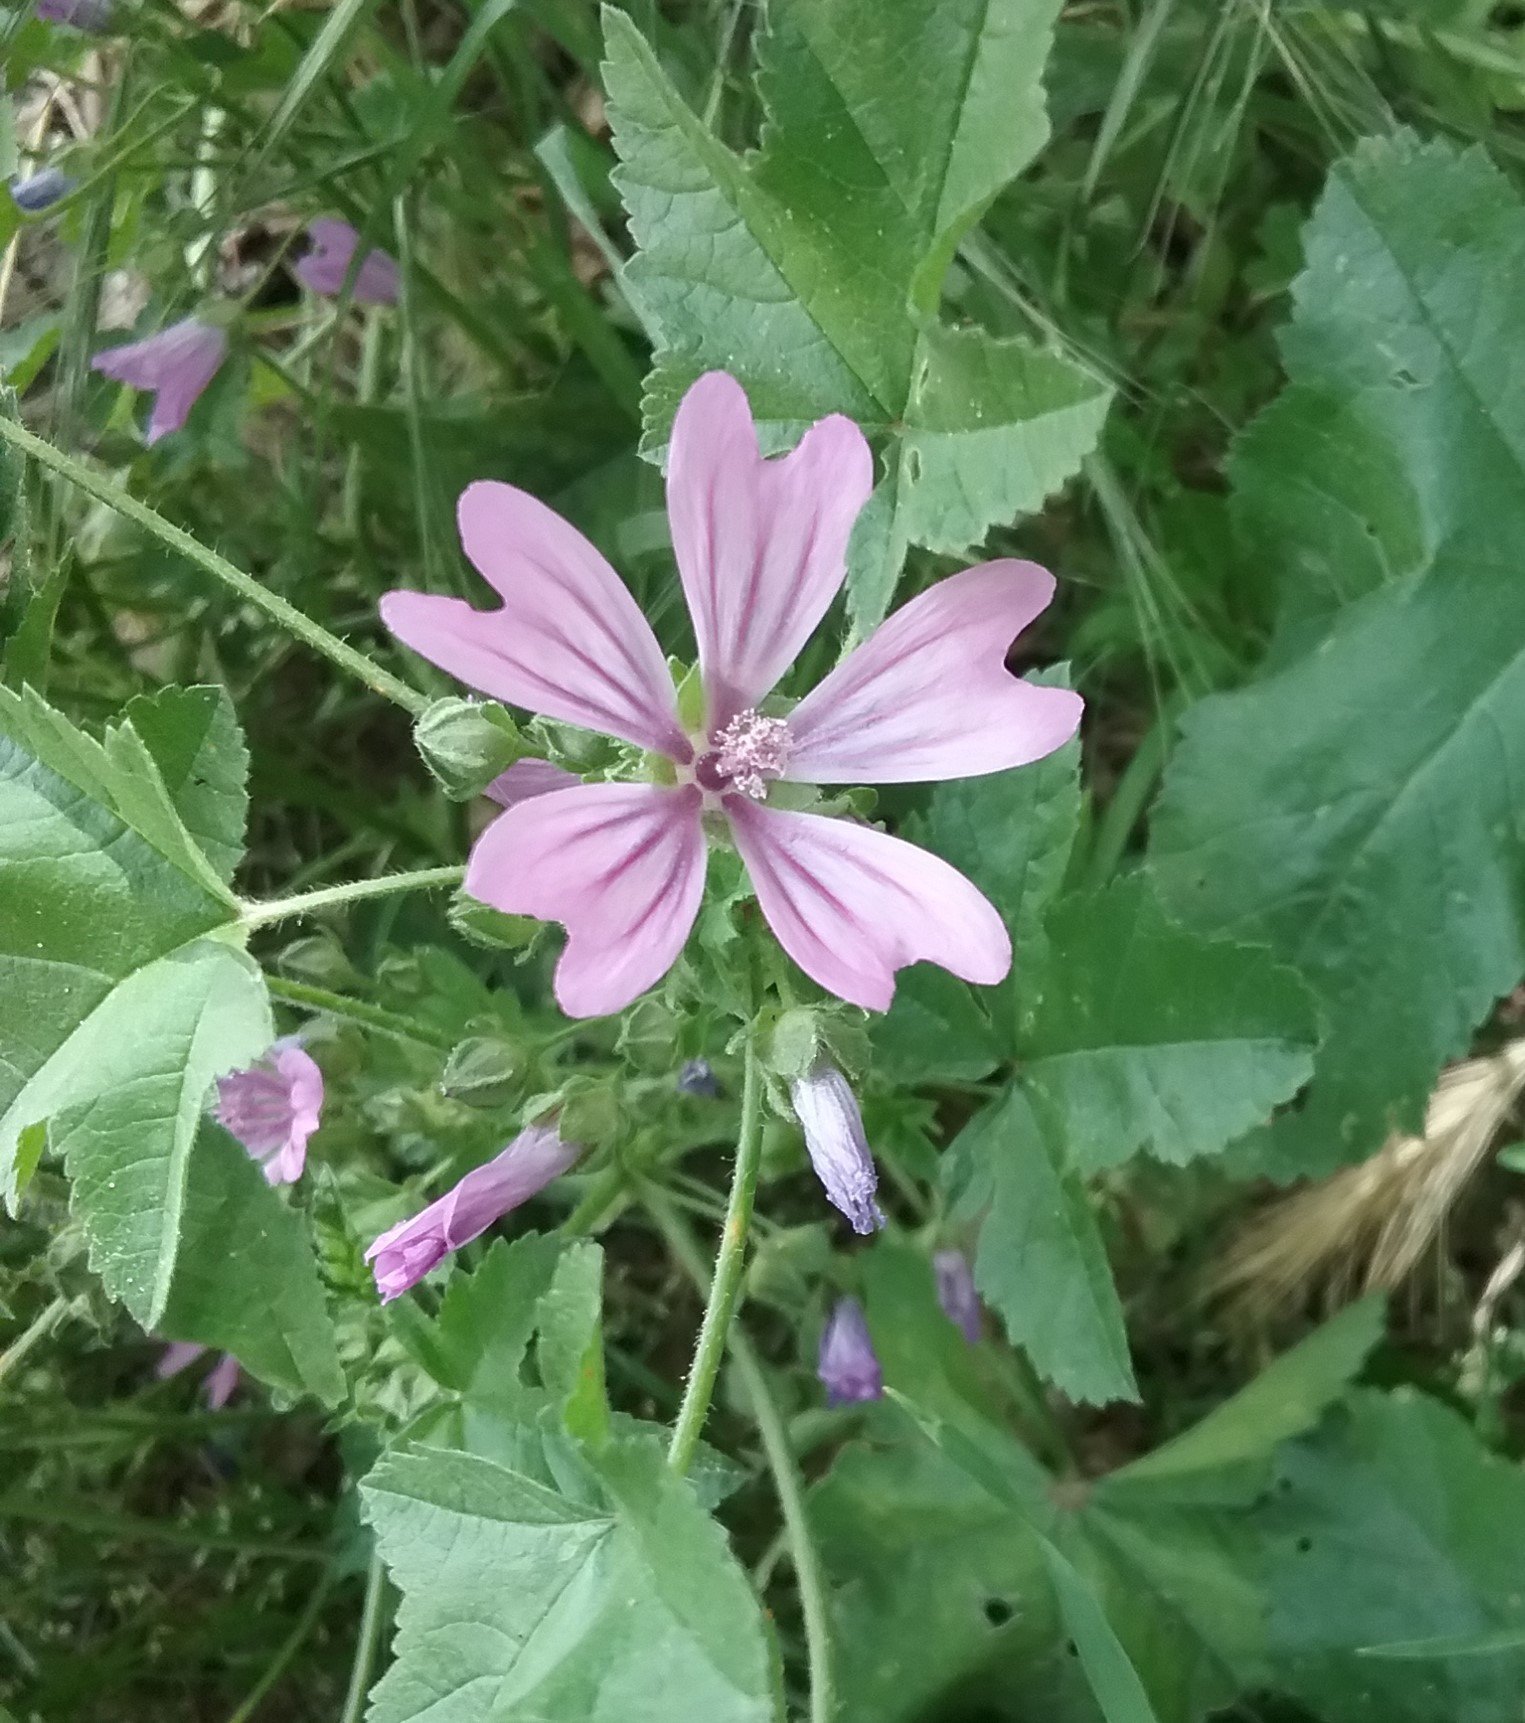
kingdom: Plantae
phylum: Tracheophyta
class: Magnoliopsida
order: Malvales
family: Malvaceae
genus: Malva
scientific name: Malva sylvestris
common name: Common mallow
